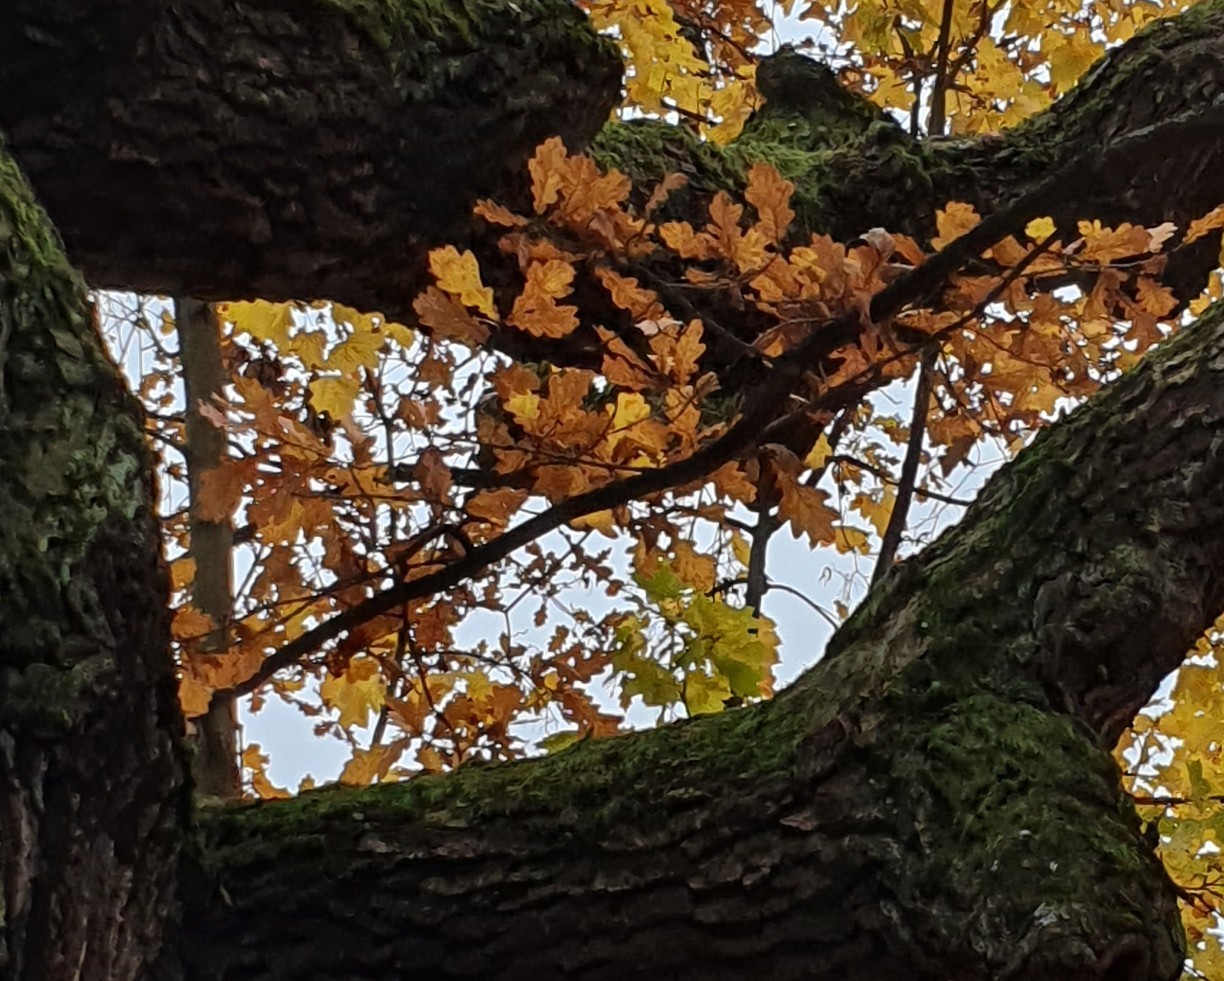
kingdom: Plantae
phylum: Tracheophyta
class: Magnoliopsida
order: Fagales
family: Fagaceae
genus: Quercus
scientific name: Quercus robur
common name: Pedunculate oak
